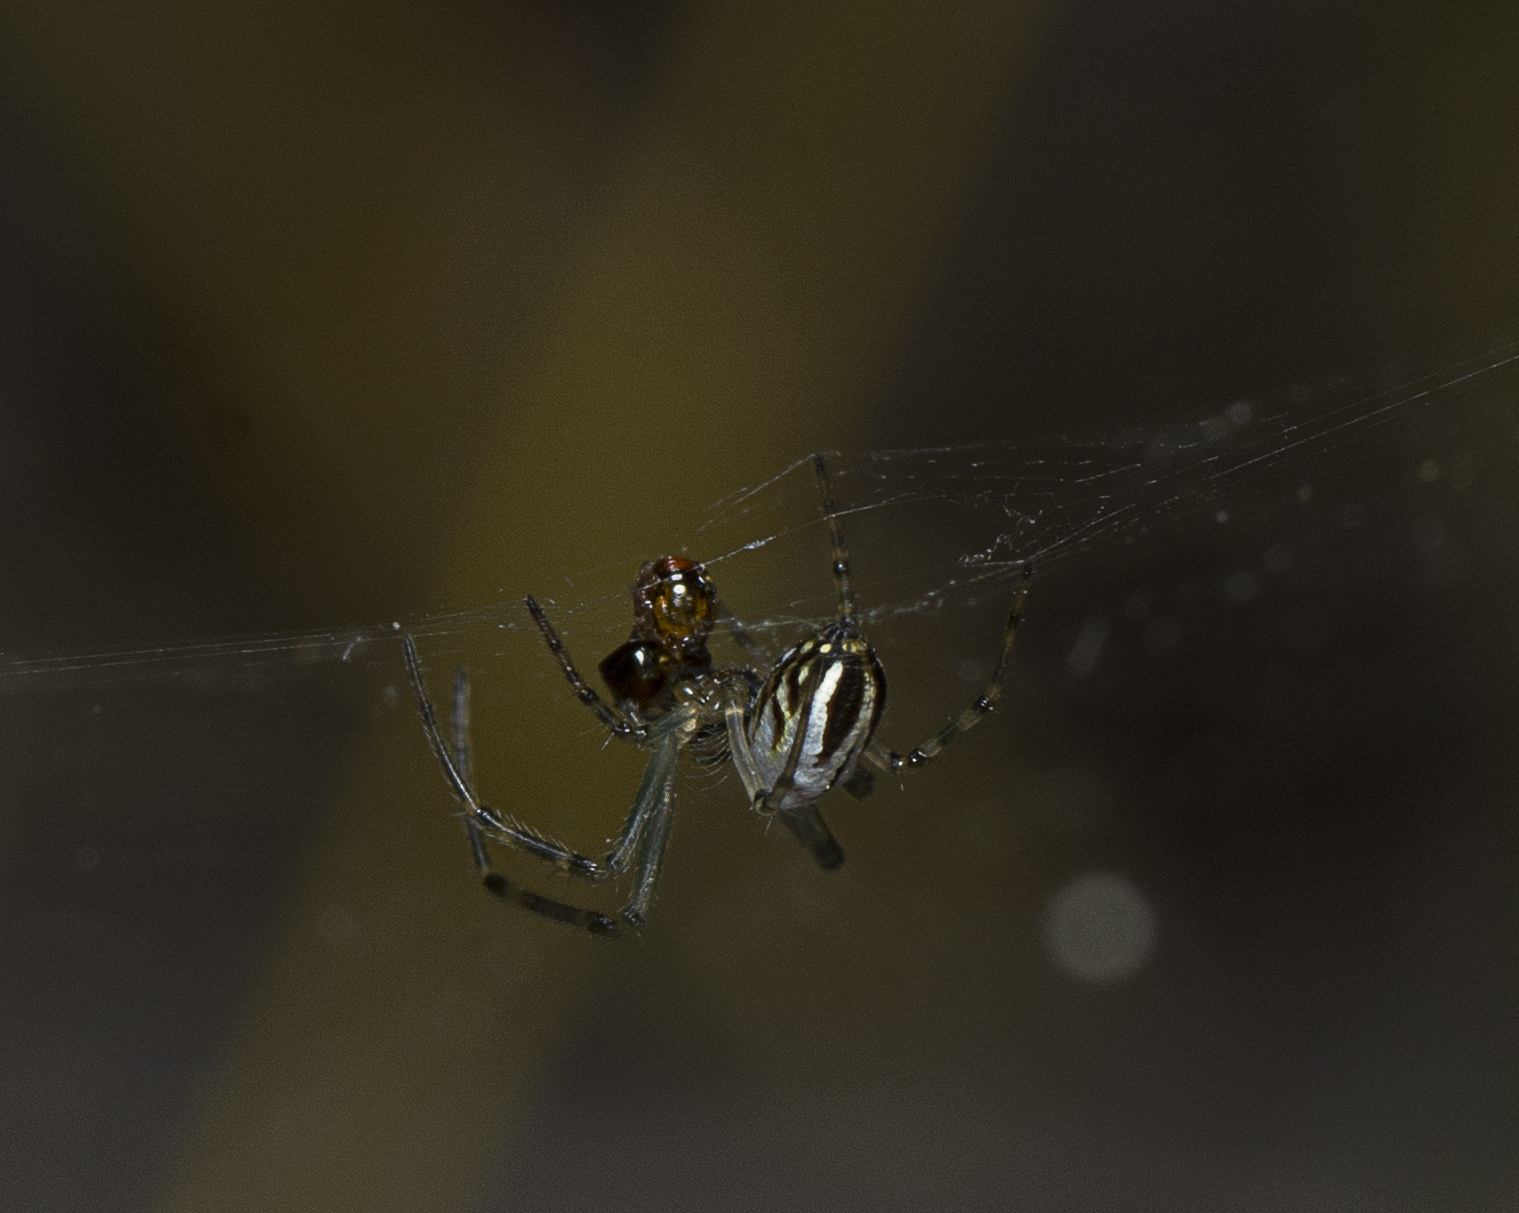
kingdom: Animalia
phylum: Arthropoda
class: Arachnida
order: Araneae
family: Tetragnathidae
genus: Leucauge
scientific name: Leucauge dromedaria
